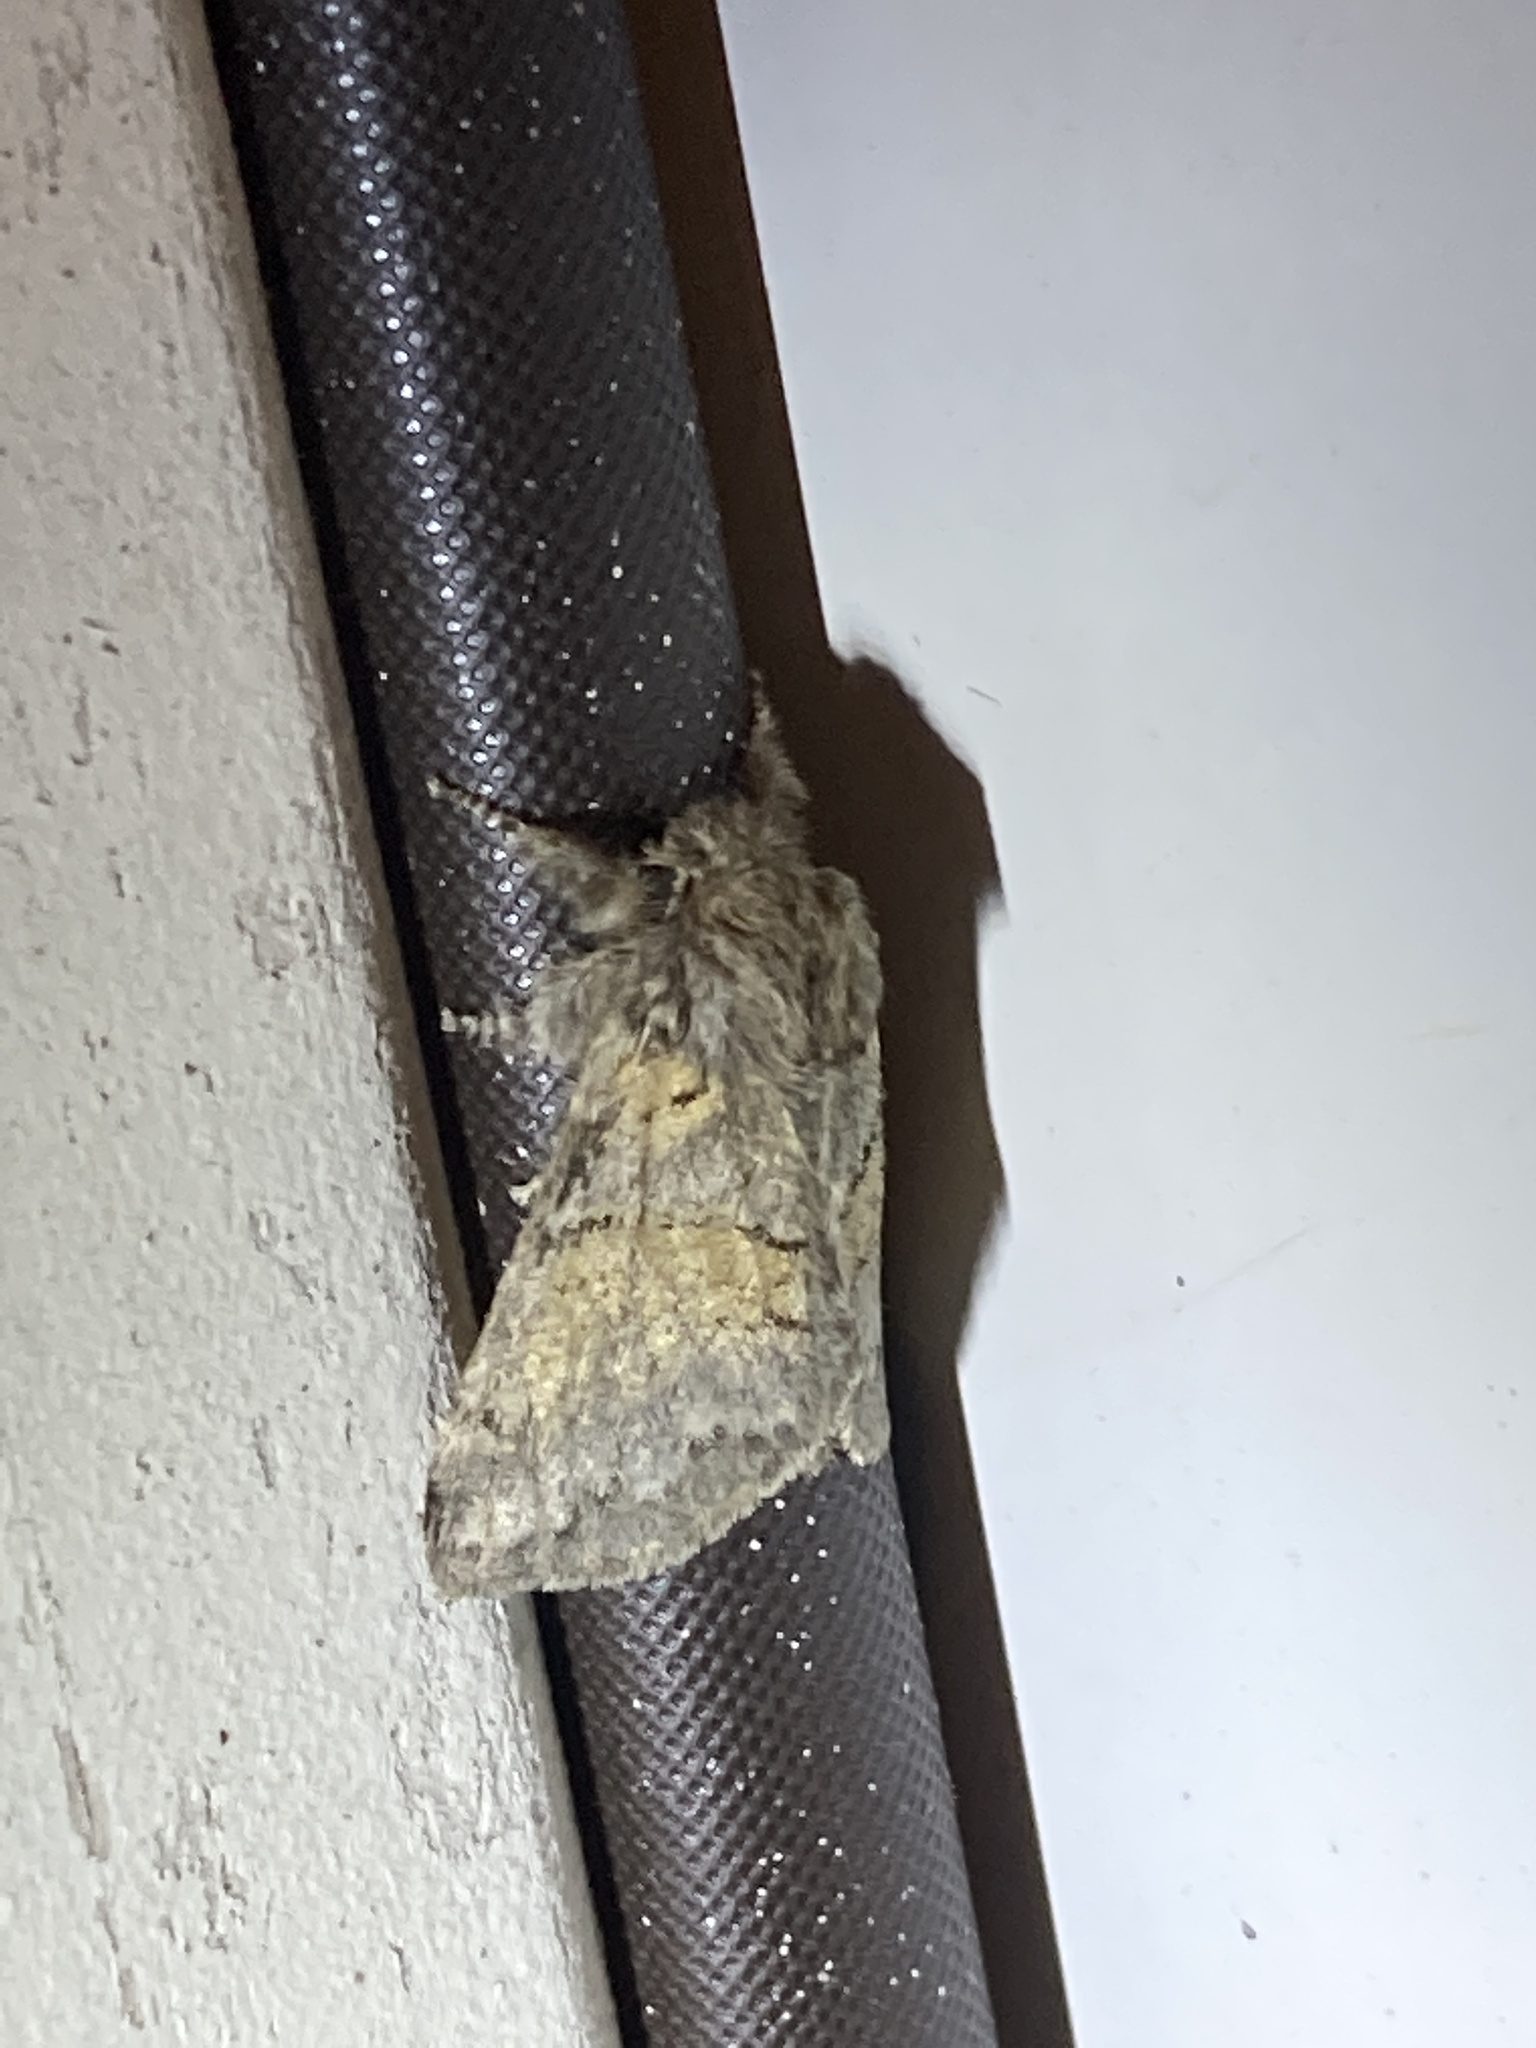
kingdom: Animalia
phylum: Arthropoda
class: Insecta
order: Lepidoptera
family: Notodontidae
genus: Gluphisia
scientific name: Gluphisia septentrionis
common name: Common gluphisia
